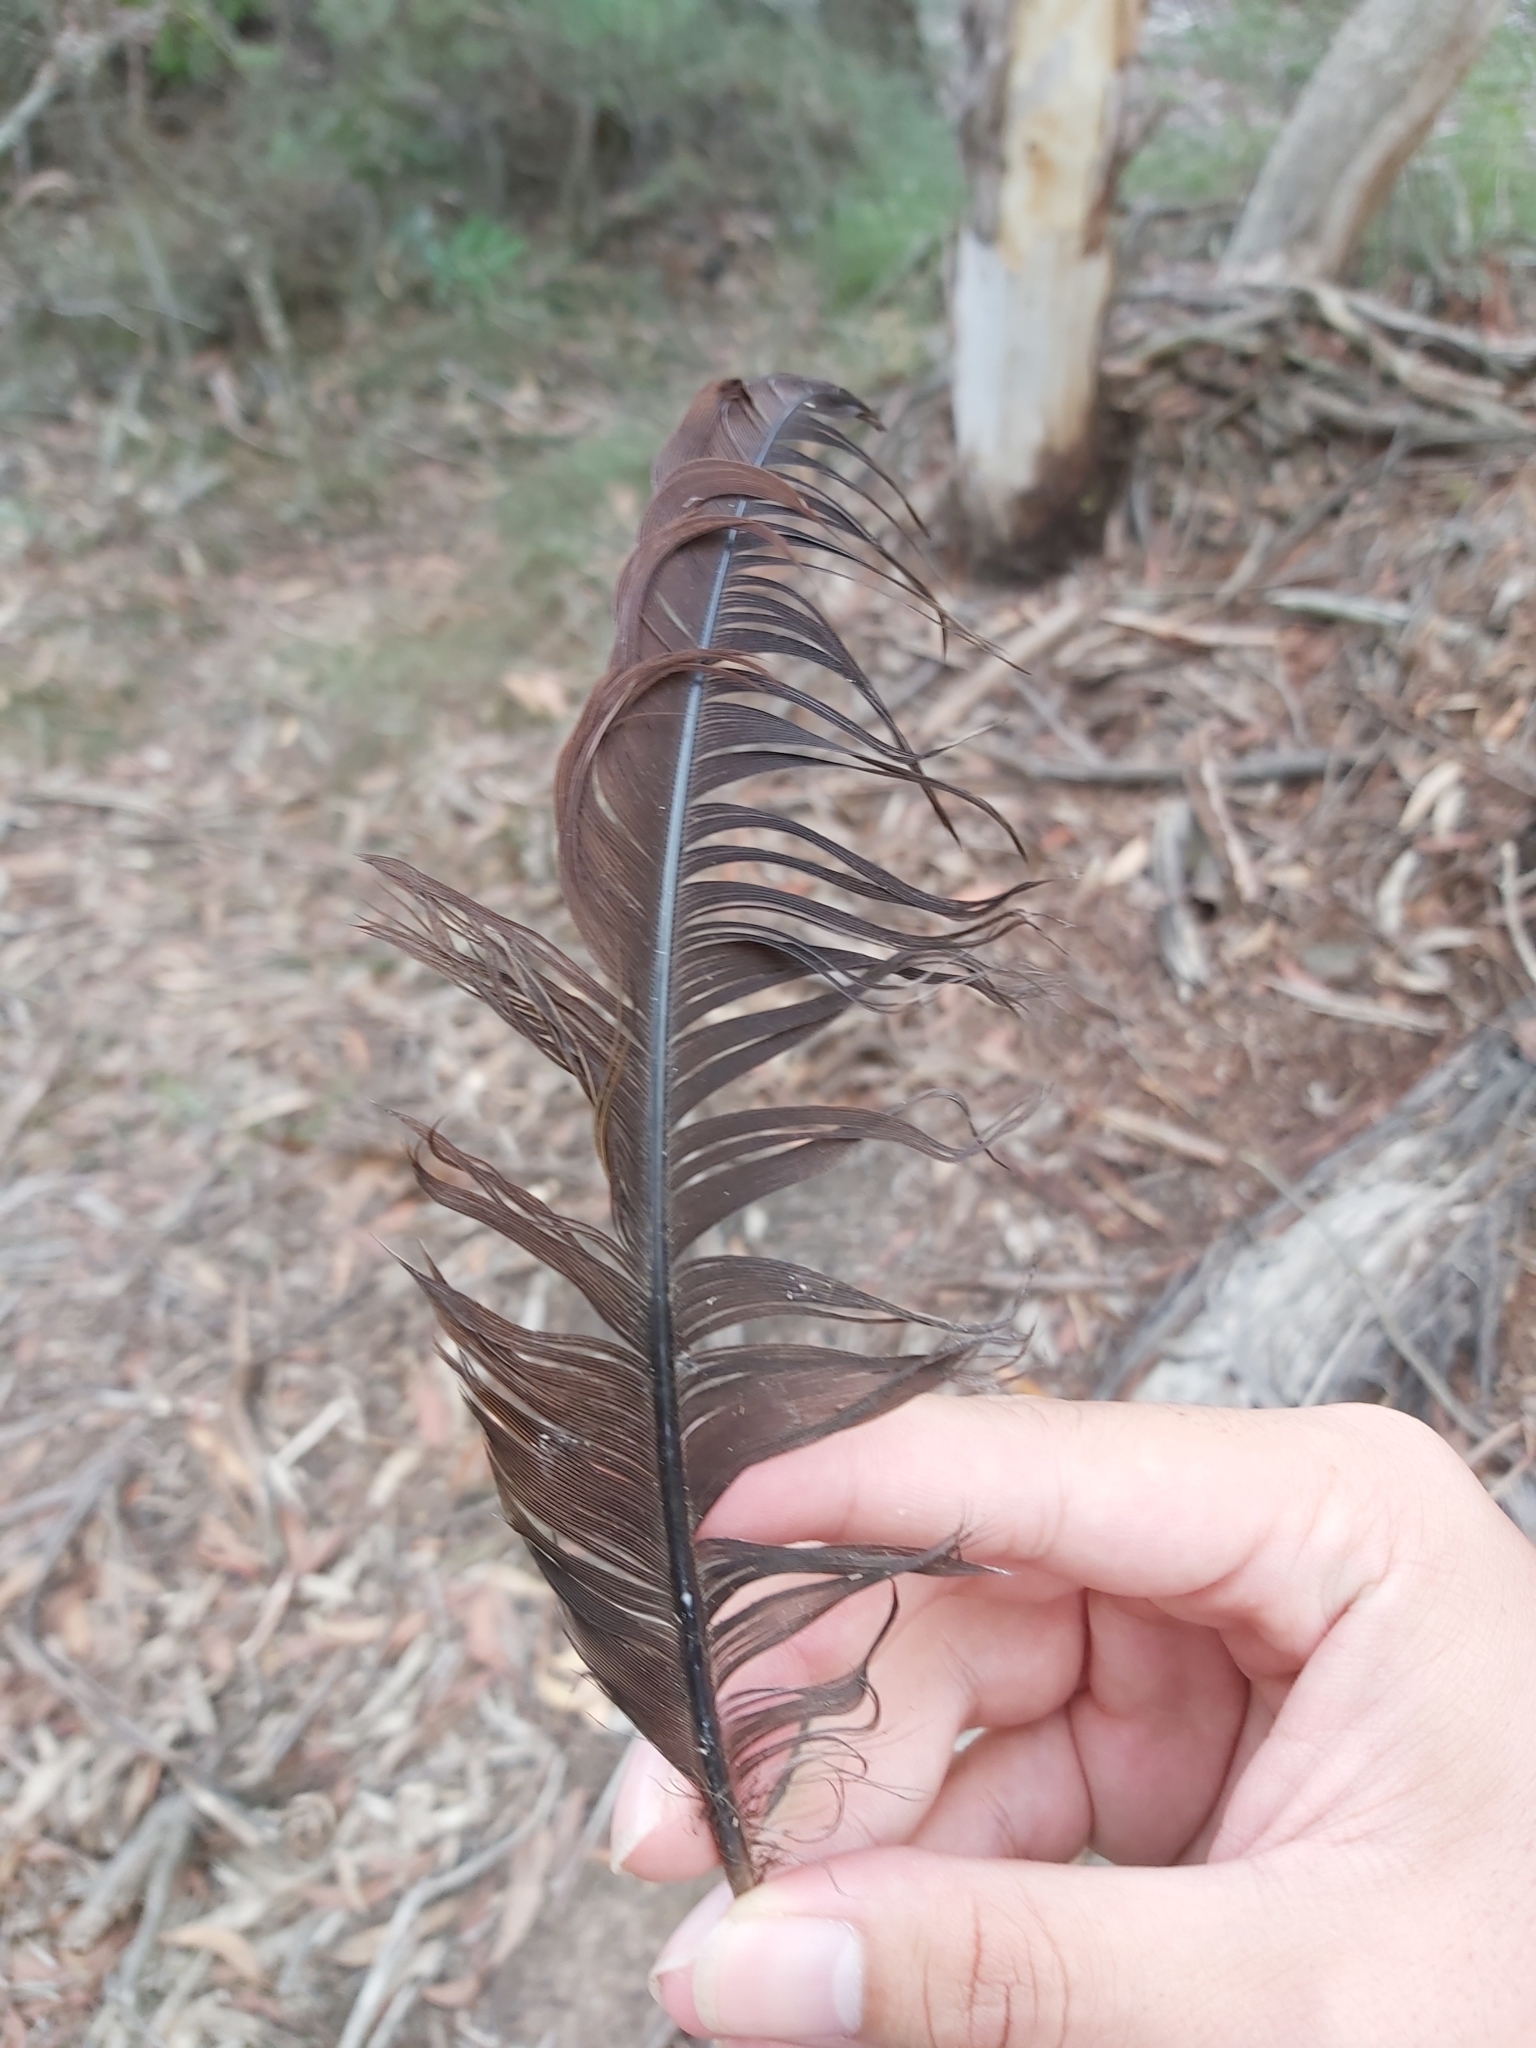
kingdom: Animalia
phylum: Chordata
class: Aves
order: Passeriformes
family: Menuridae
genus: Menura
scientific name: Menura novaehollandiae
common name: Superb lyrebird
